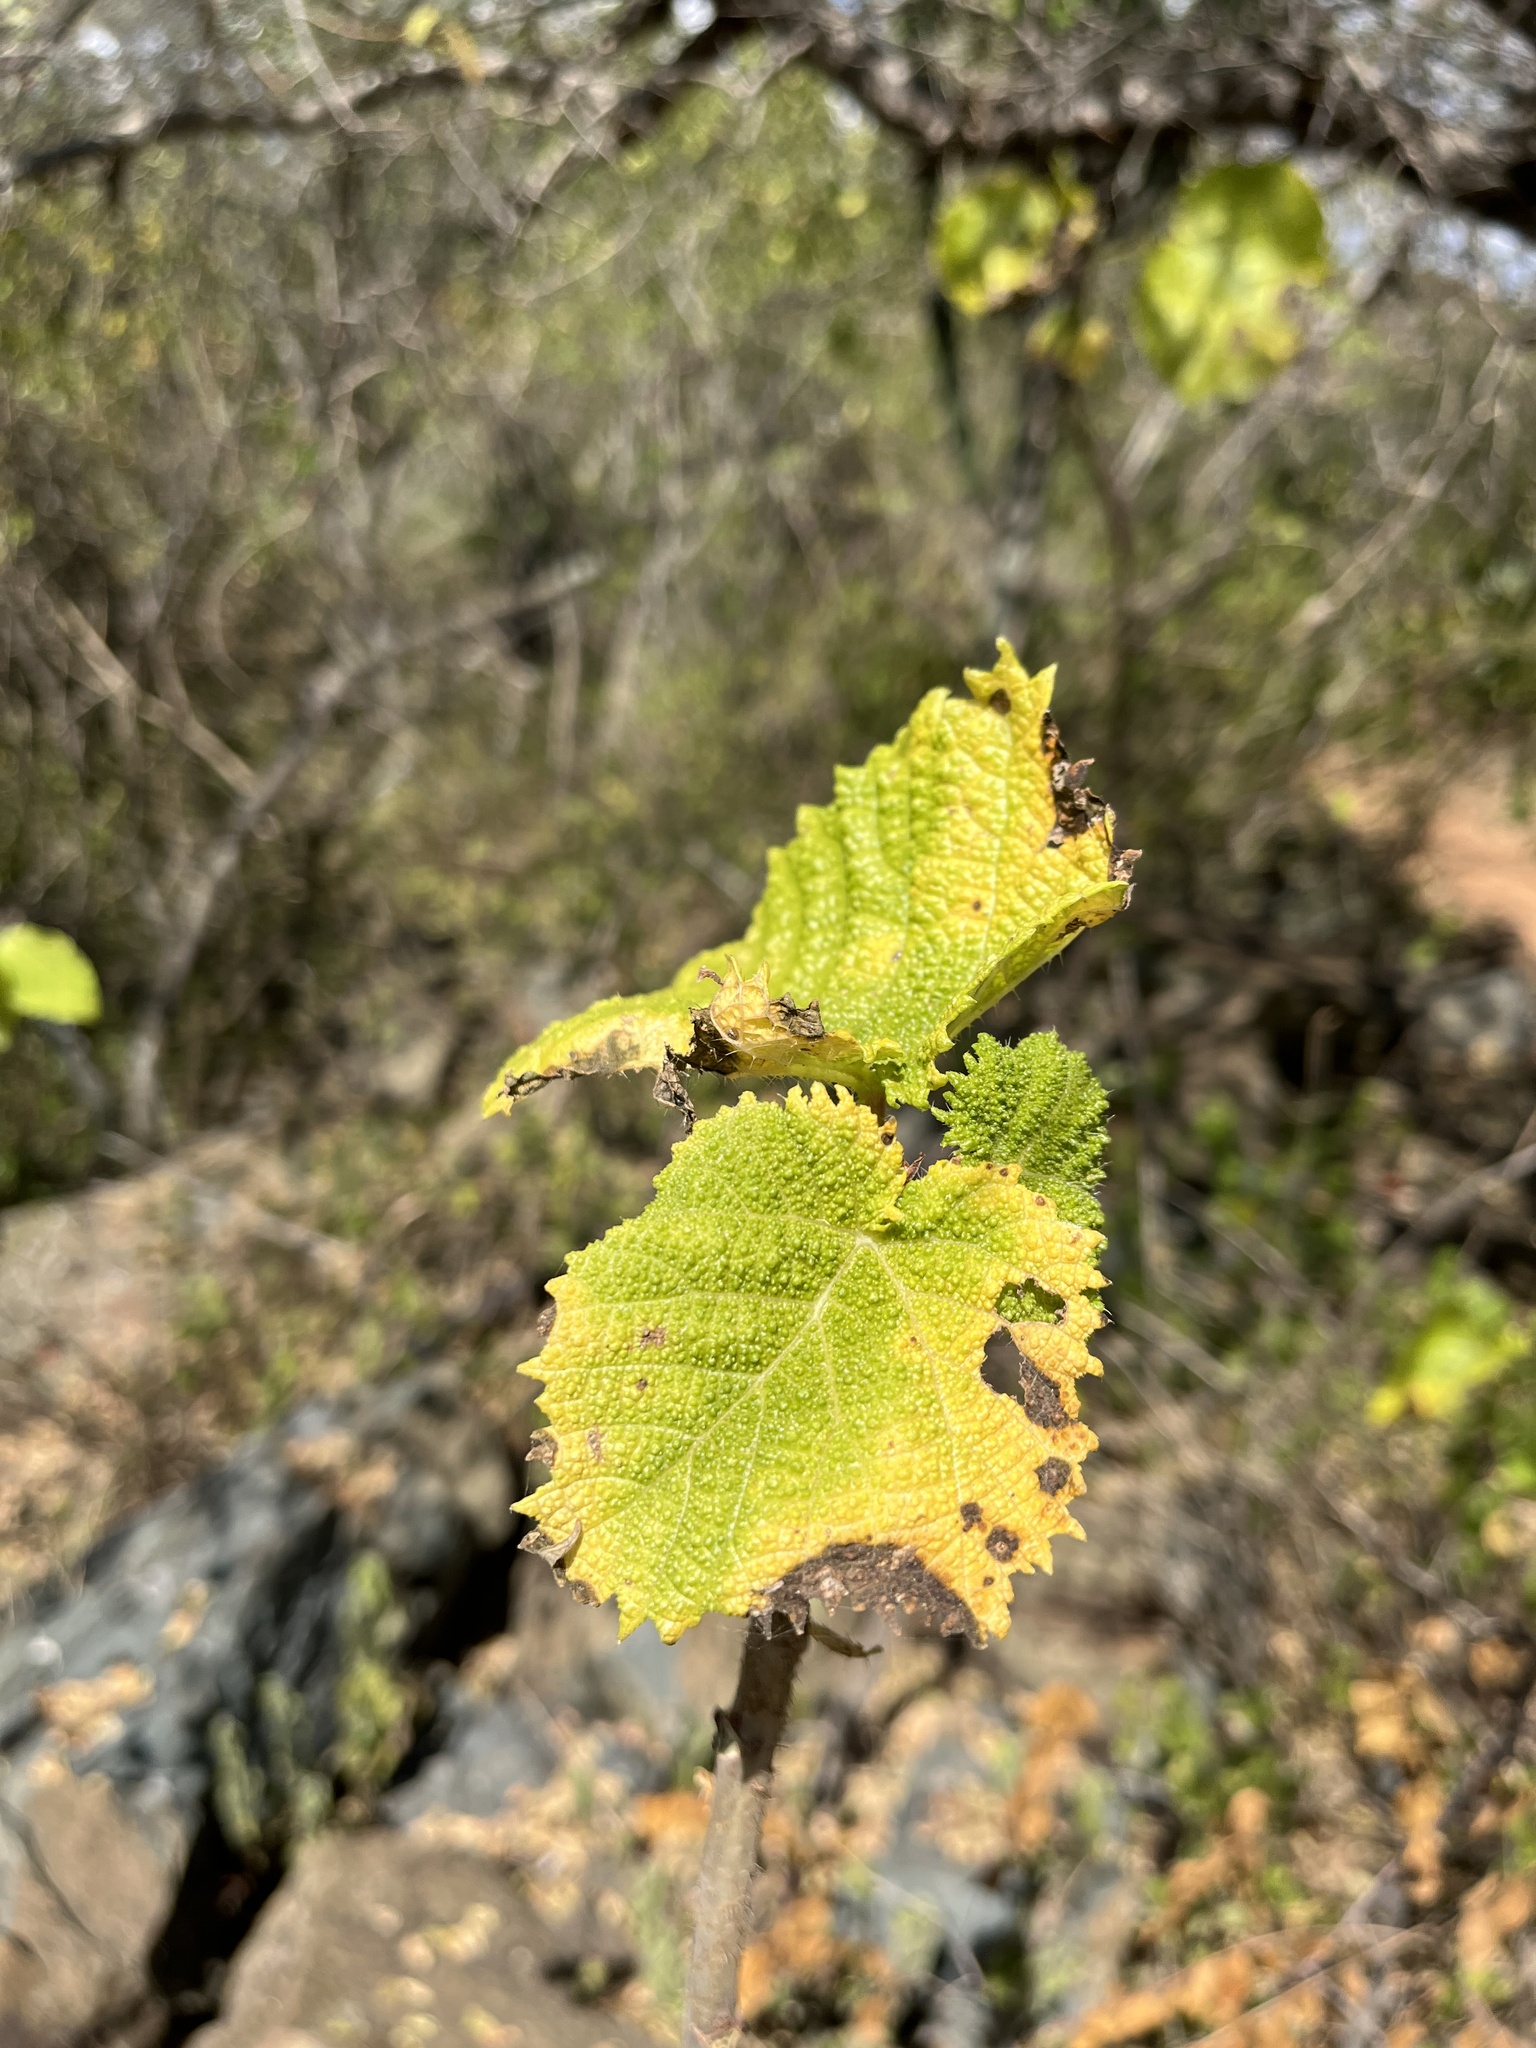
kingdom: Plantae
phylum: Tracheophyta
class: Magnoliopsida
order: Rosales
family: Urticaceae
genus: Obetia
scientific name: Obetia tenax
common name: Rock tree nettle
